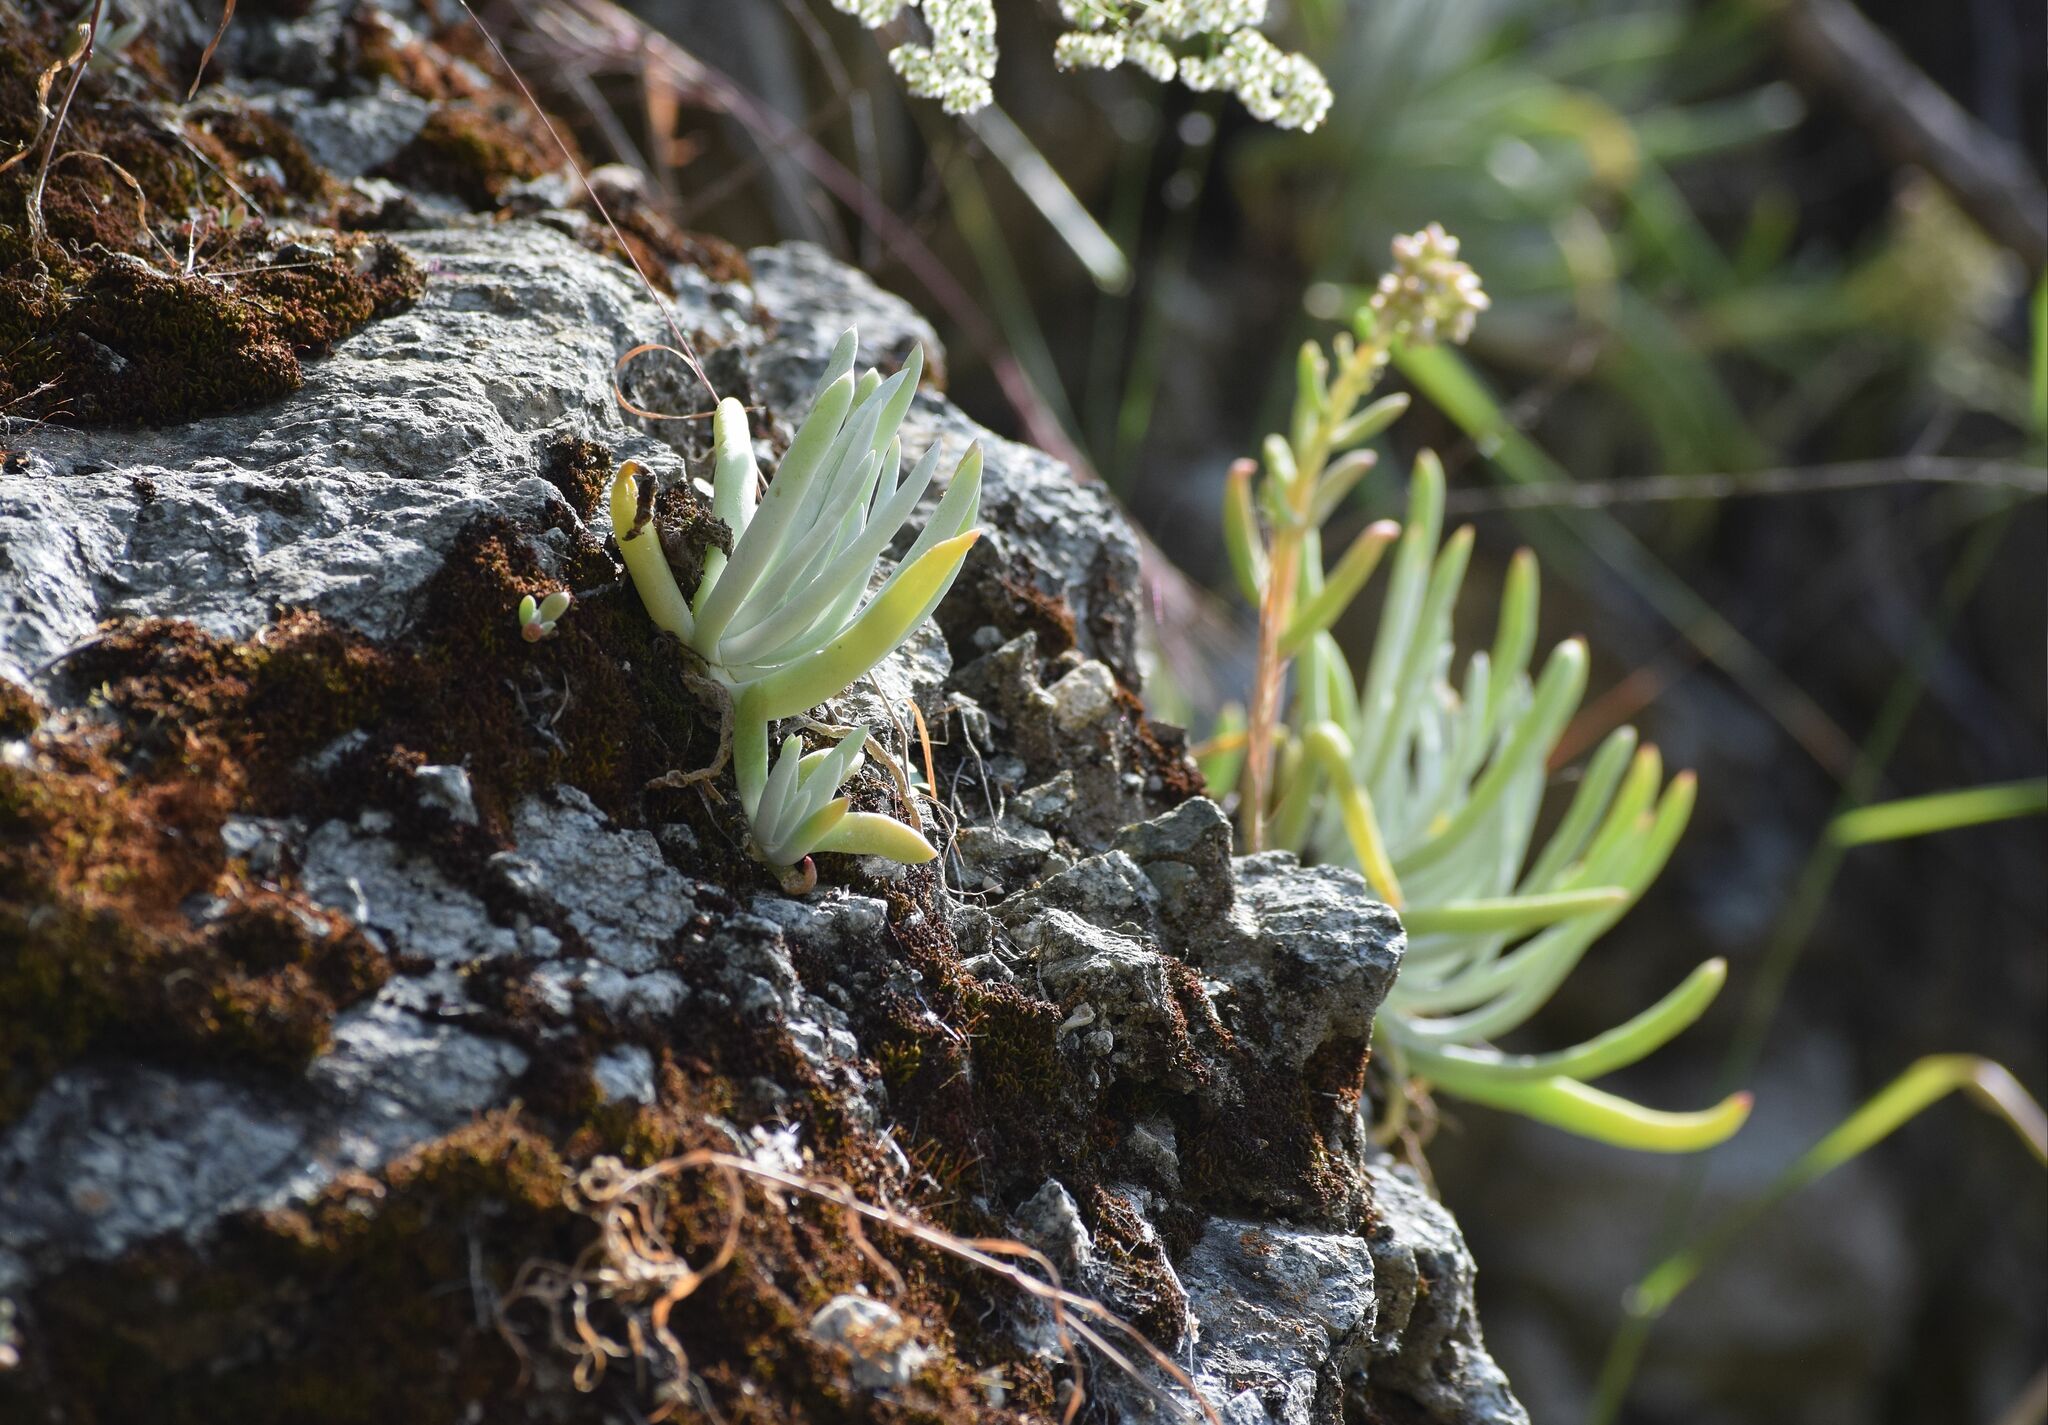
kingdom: Plantae
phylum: Tracheophyta
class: Magnoliopsida
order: Saxifragales
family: Crassulaceae
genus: Dudleya
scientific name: Dudleya densiflora
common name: San gabriel mountains dudleya
